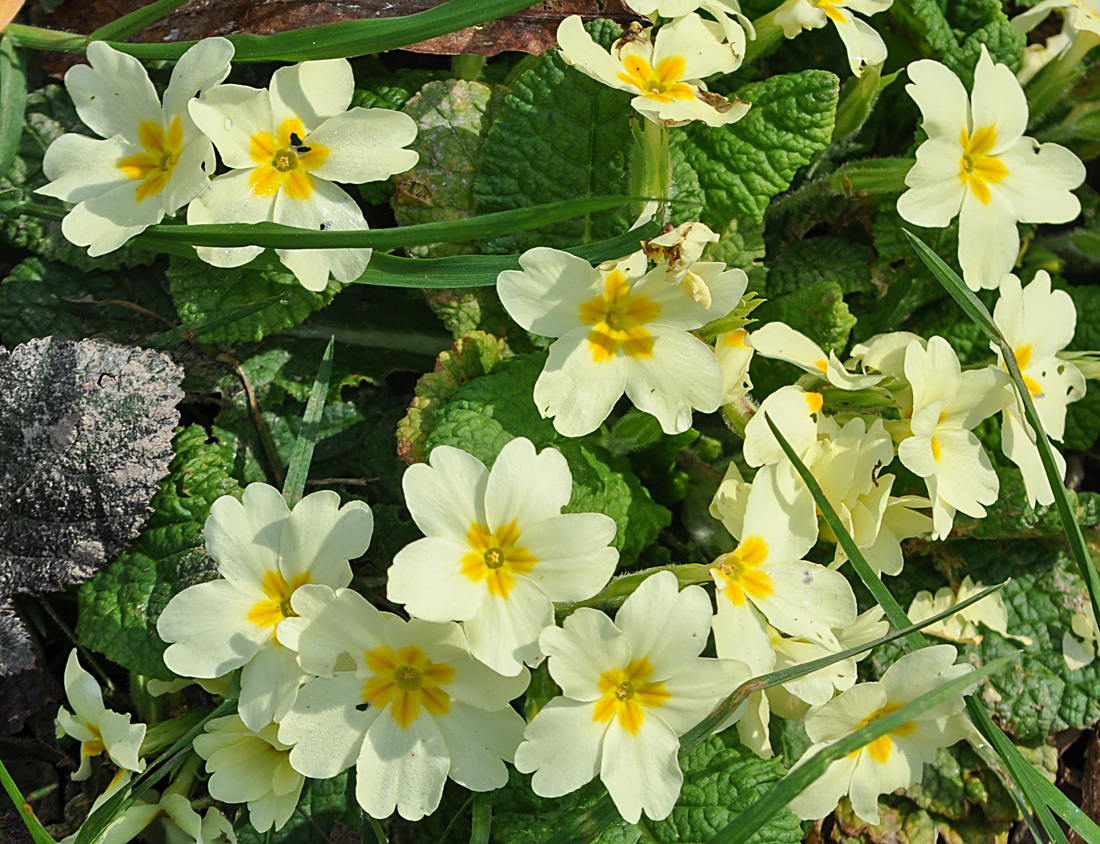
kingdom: Plantae
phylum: Tracheophyta
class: Magnoliopsida
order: Ericales
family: Primulaceae
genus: Primula
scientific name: Primula vulgaris
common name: Primrose
